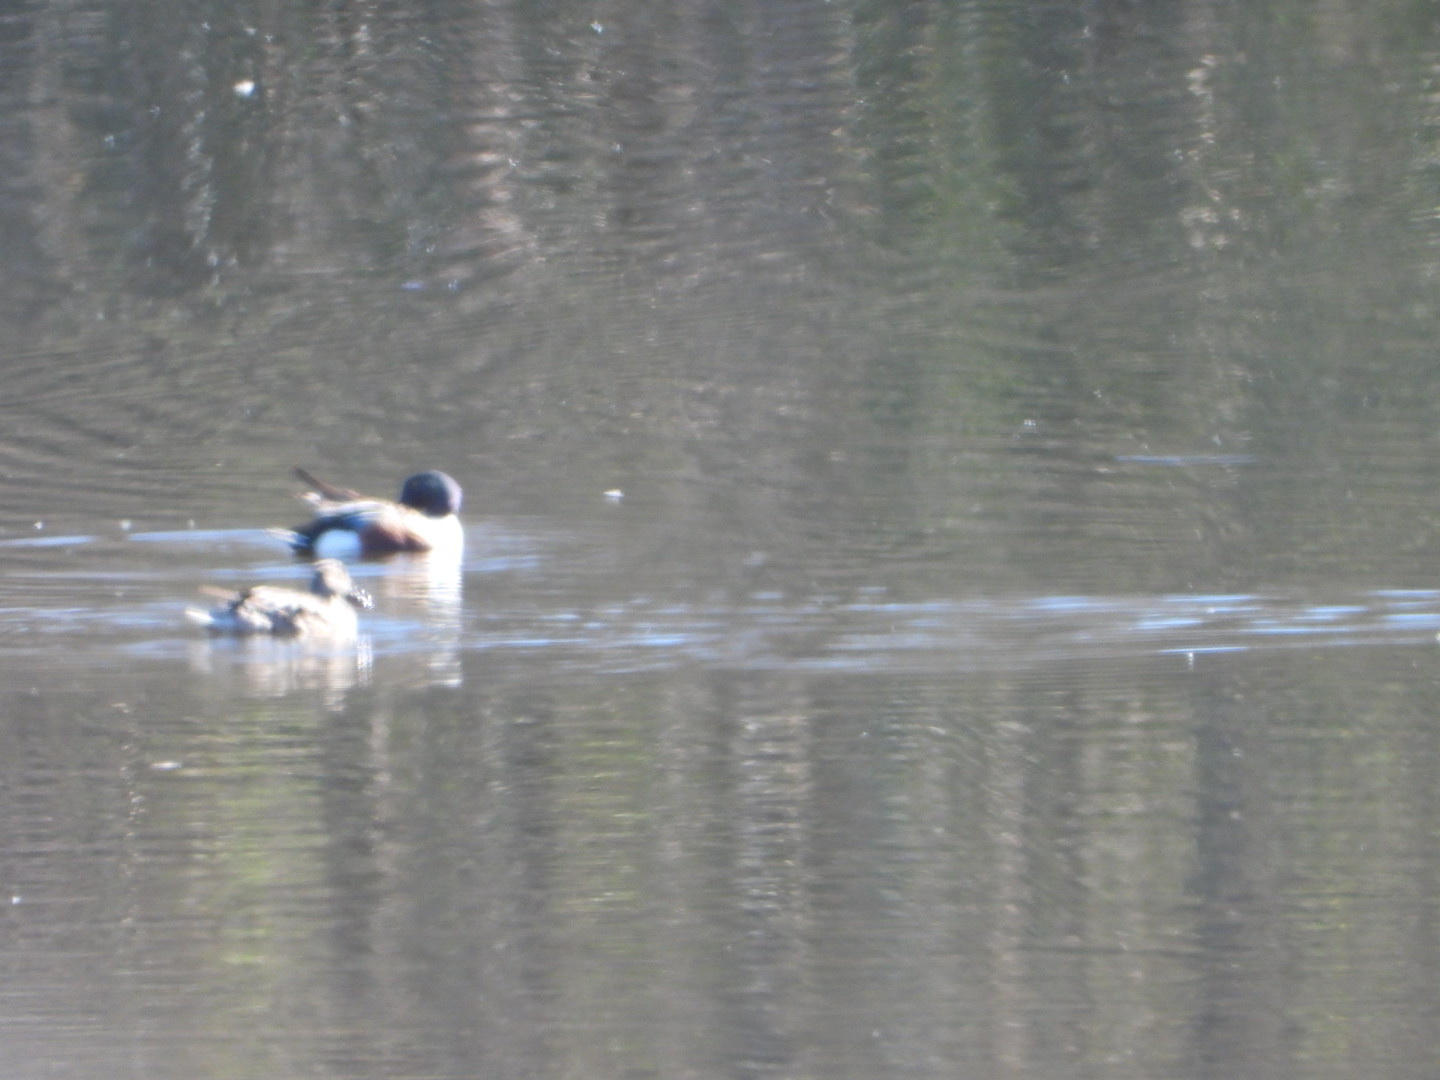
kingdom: Animalia
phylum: Chordata
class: Aves
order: Anseriformes
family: Anatidae
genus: Spatula
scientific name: Spatula clypeata
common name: Northern shoveler
